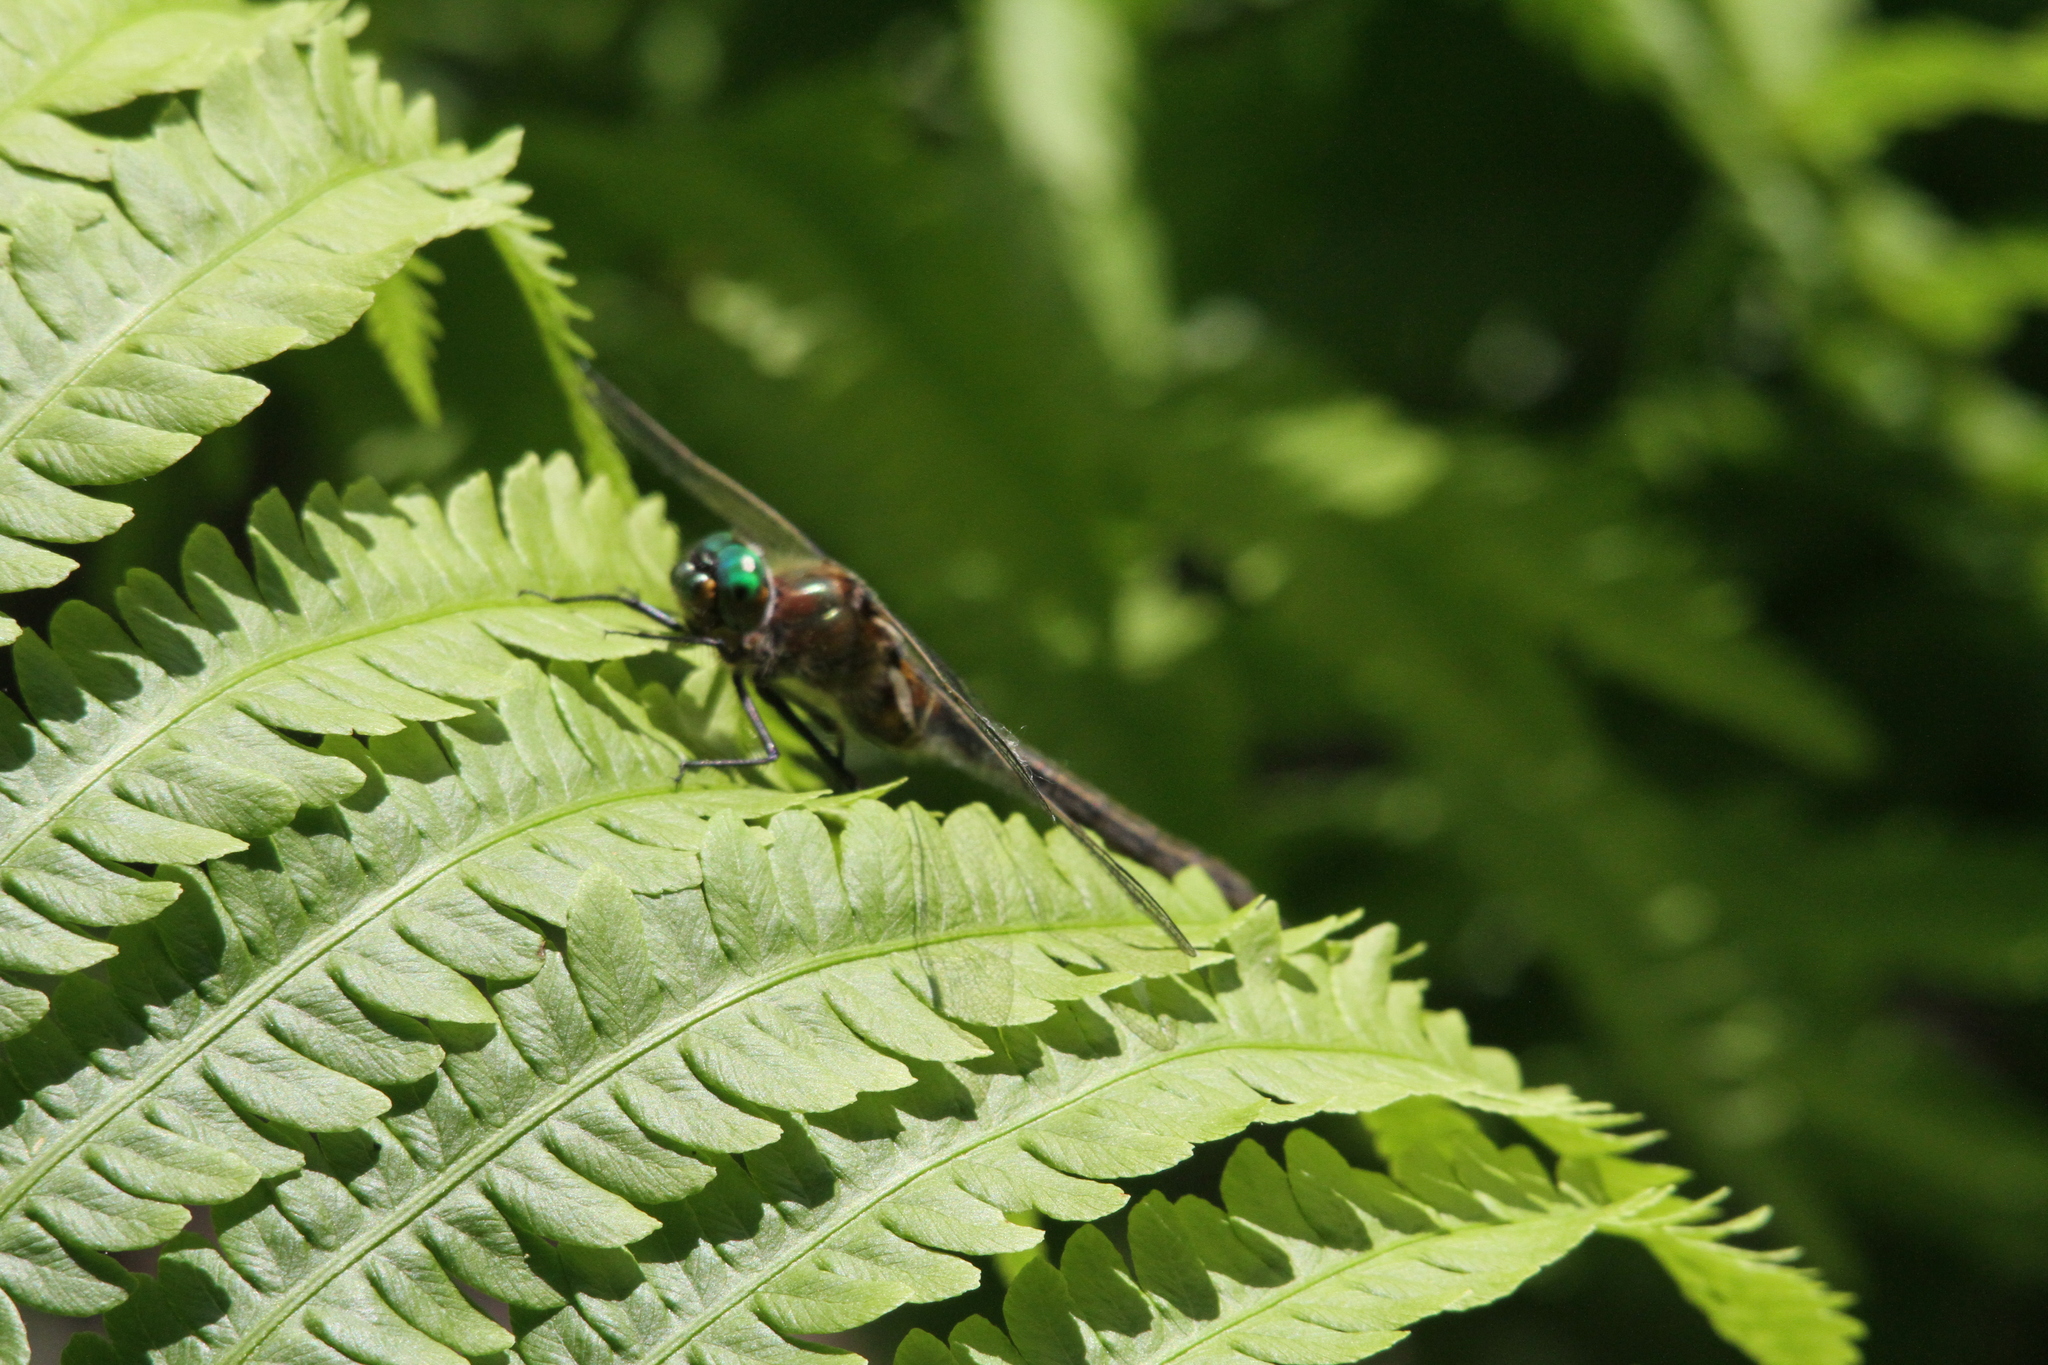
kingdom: Animalia
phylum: Arthropoda
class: Insecta
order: Odonata
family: Corduliidae
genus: Cordulia
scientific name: Cordulia shurtleffii
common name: American emerald
